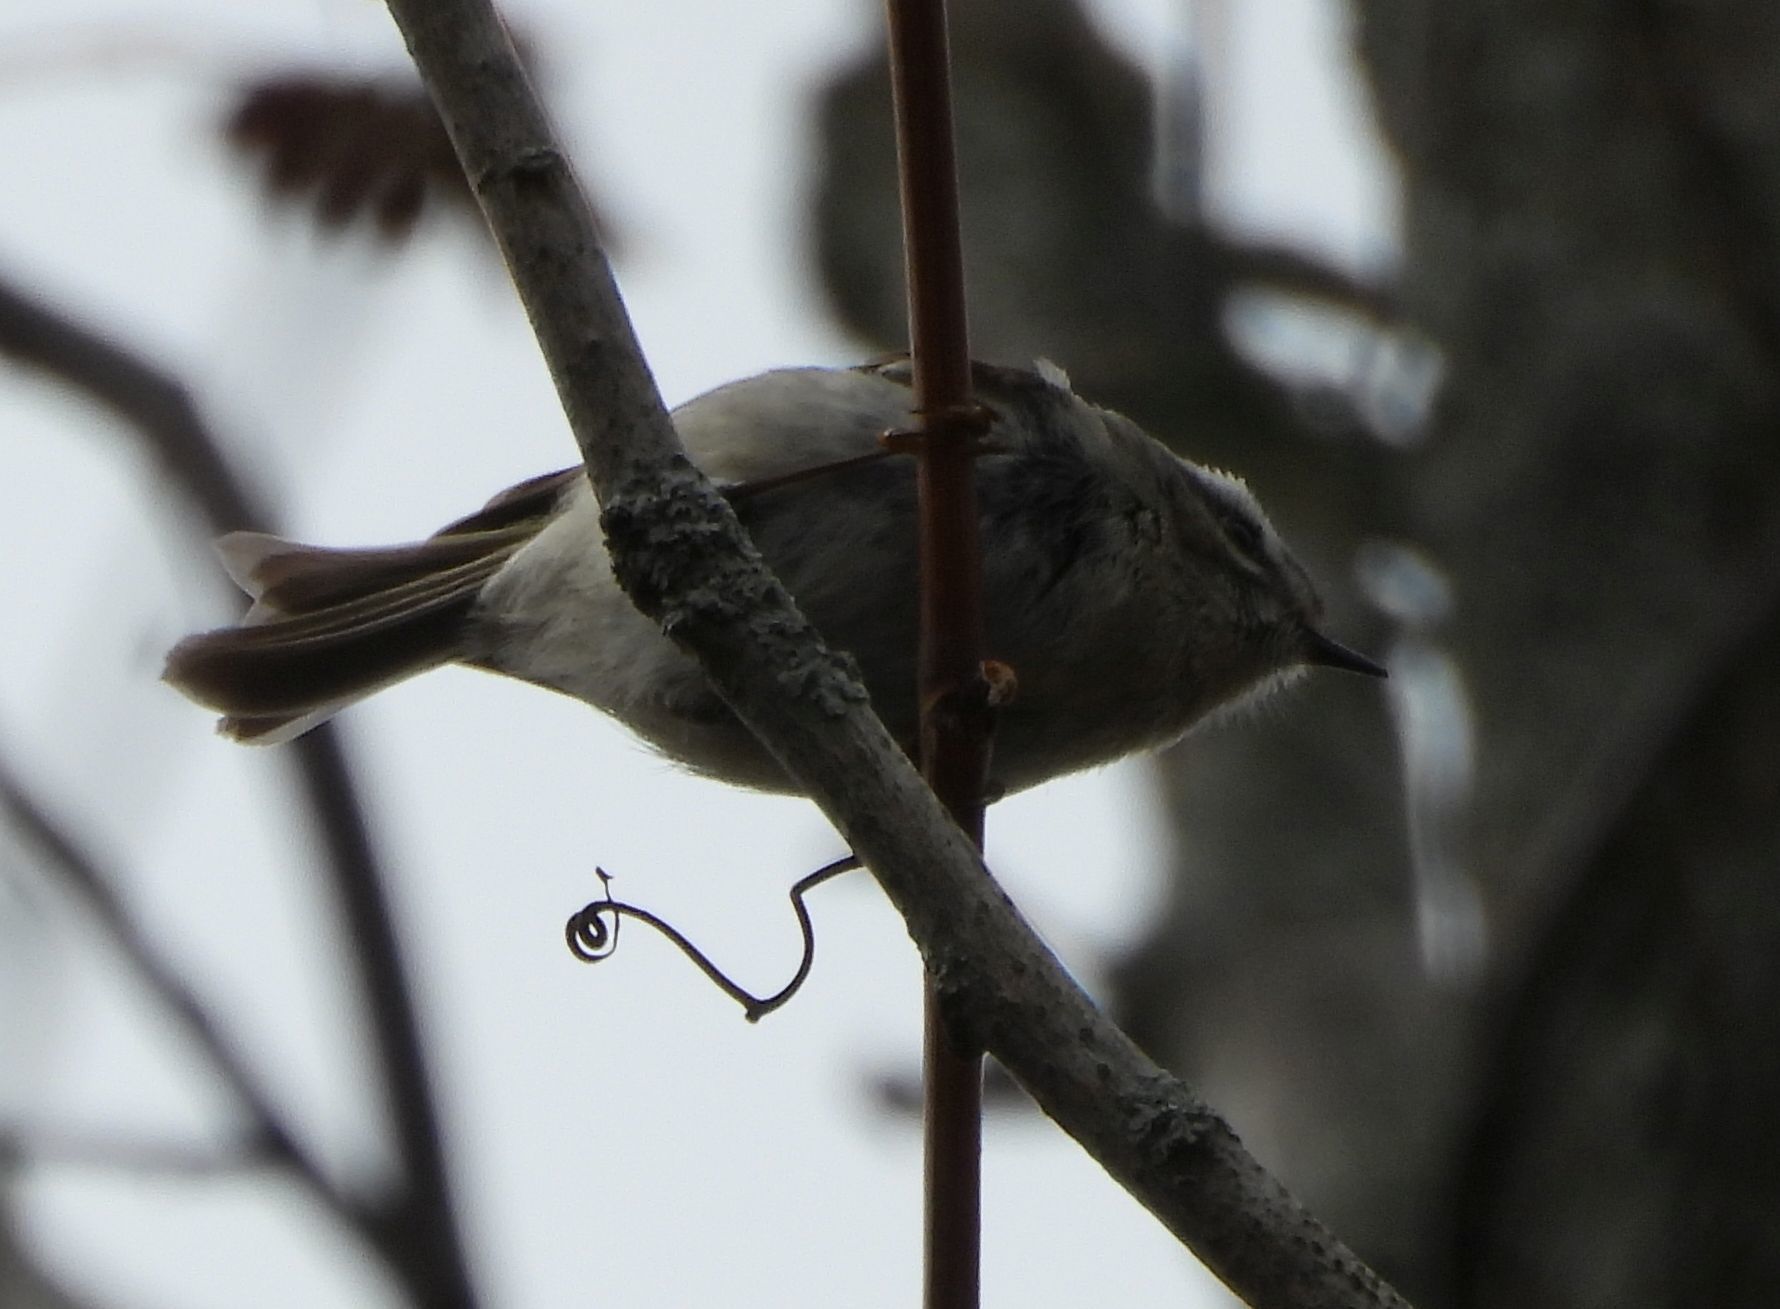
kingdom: Animalia
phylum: Chordata
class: Aves
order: Passeriformes
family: Regulidae
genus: Regulus
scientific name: Regulus satrapa
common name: Golden-crowned kinglet
